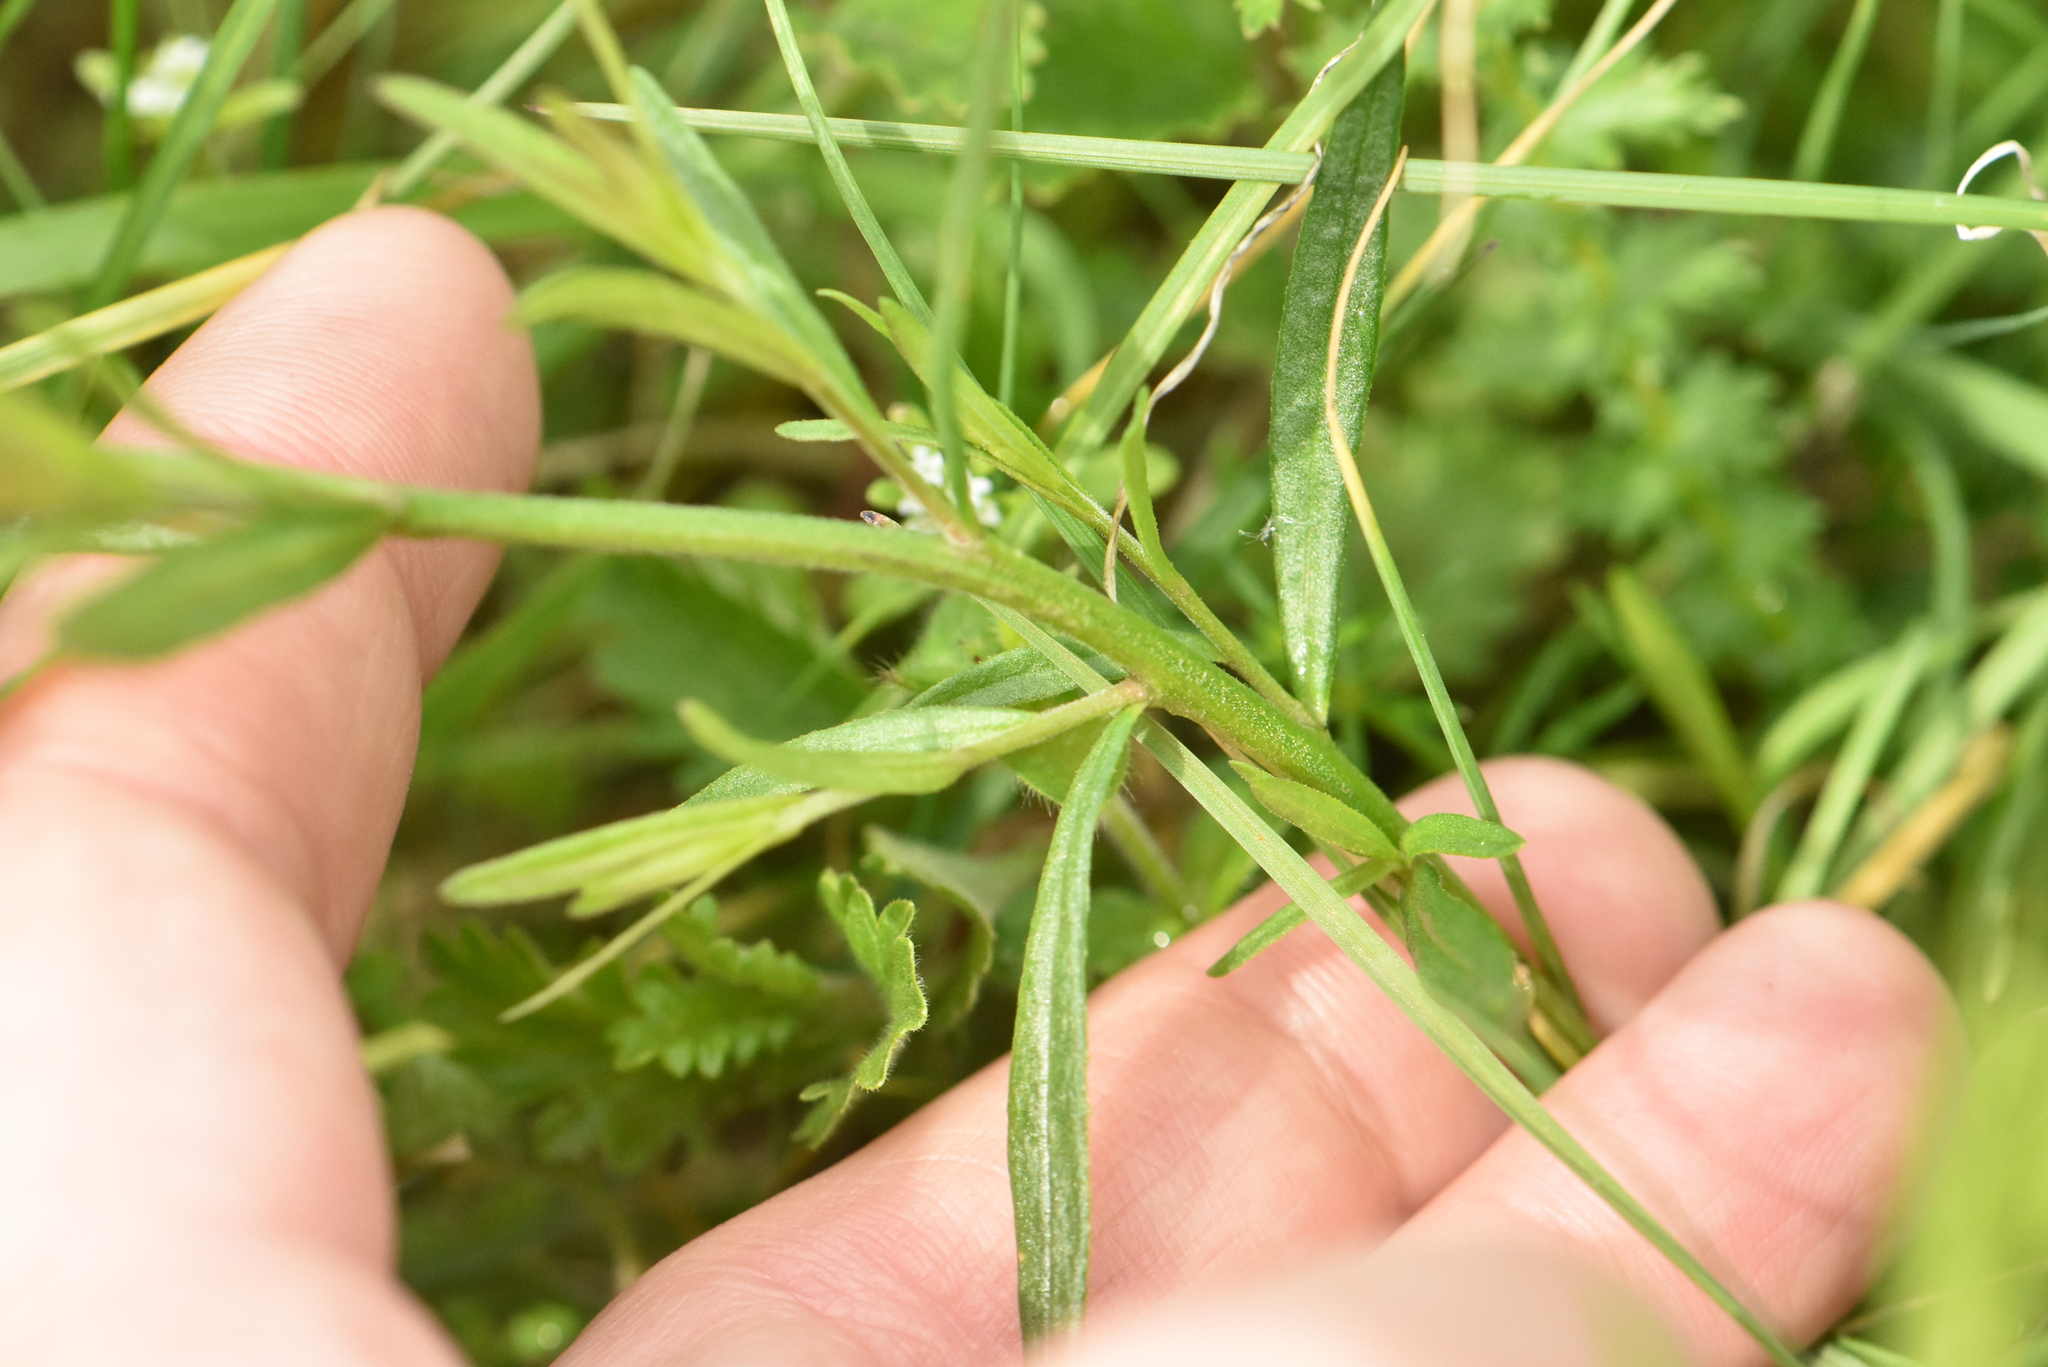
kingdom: Plantae
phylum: Tracheophyta
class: Magnoliopsida
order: Fabales
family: Polygalaceae
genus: Polygala
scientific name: Polygala major
